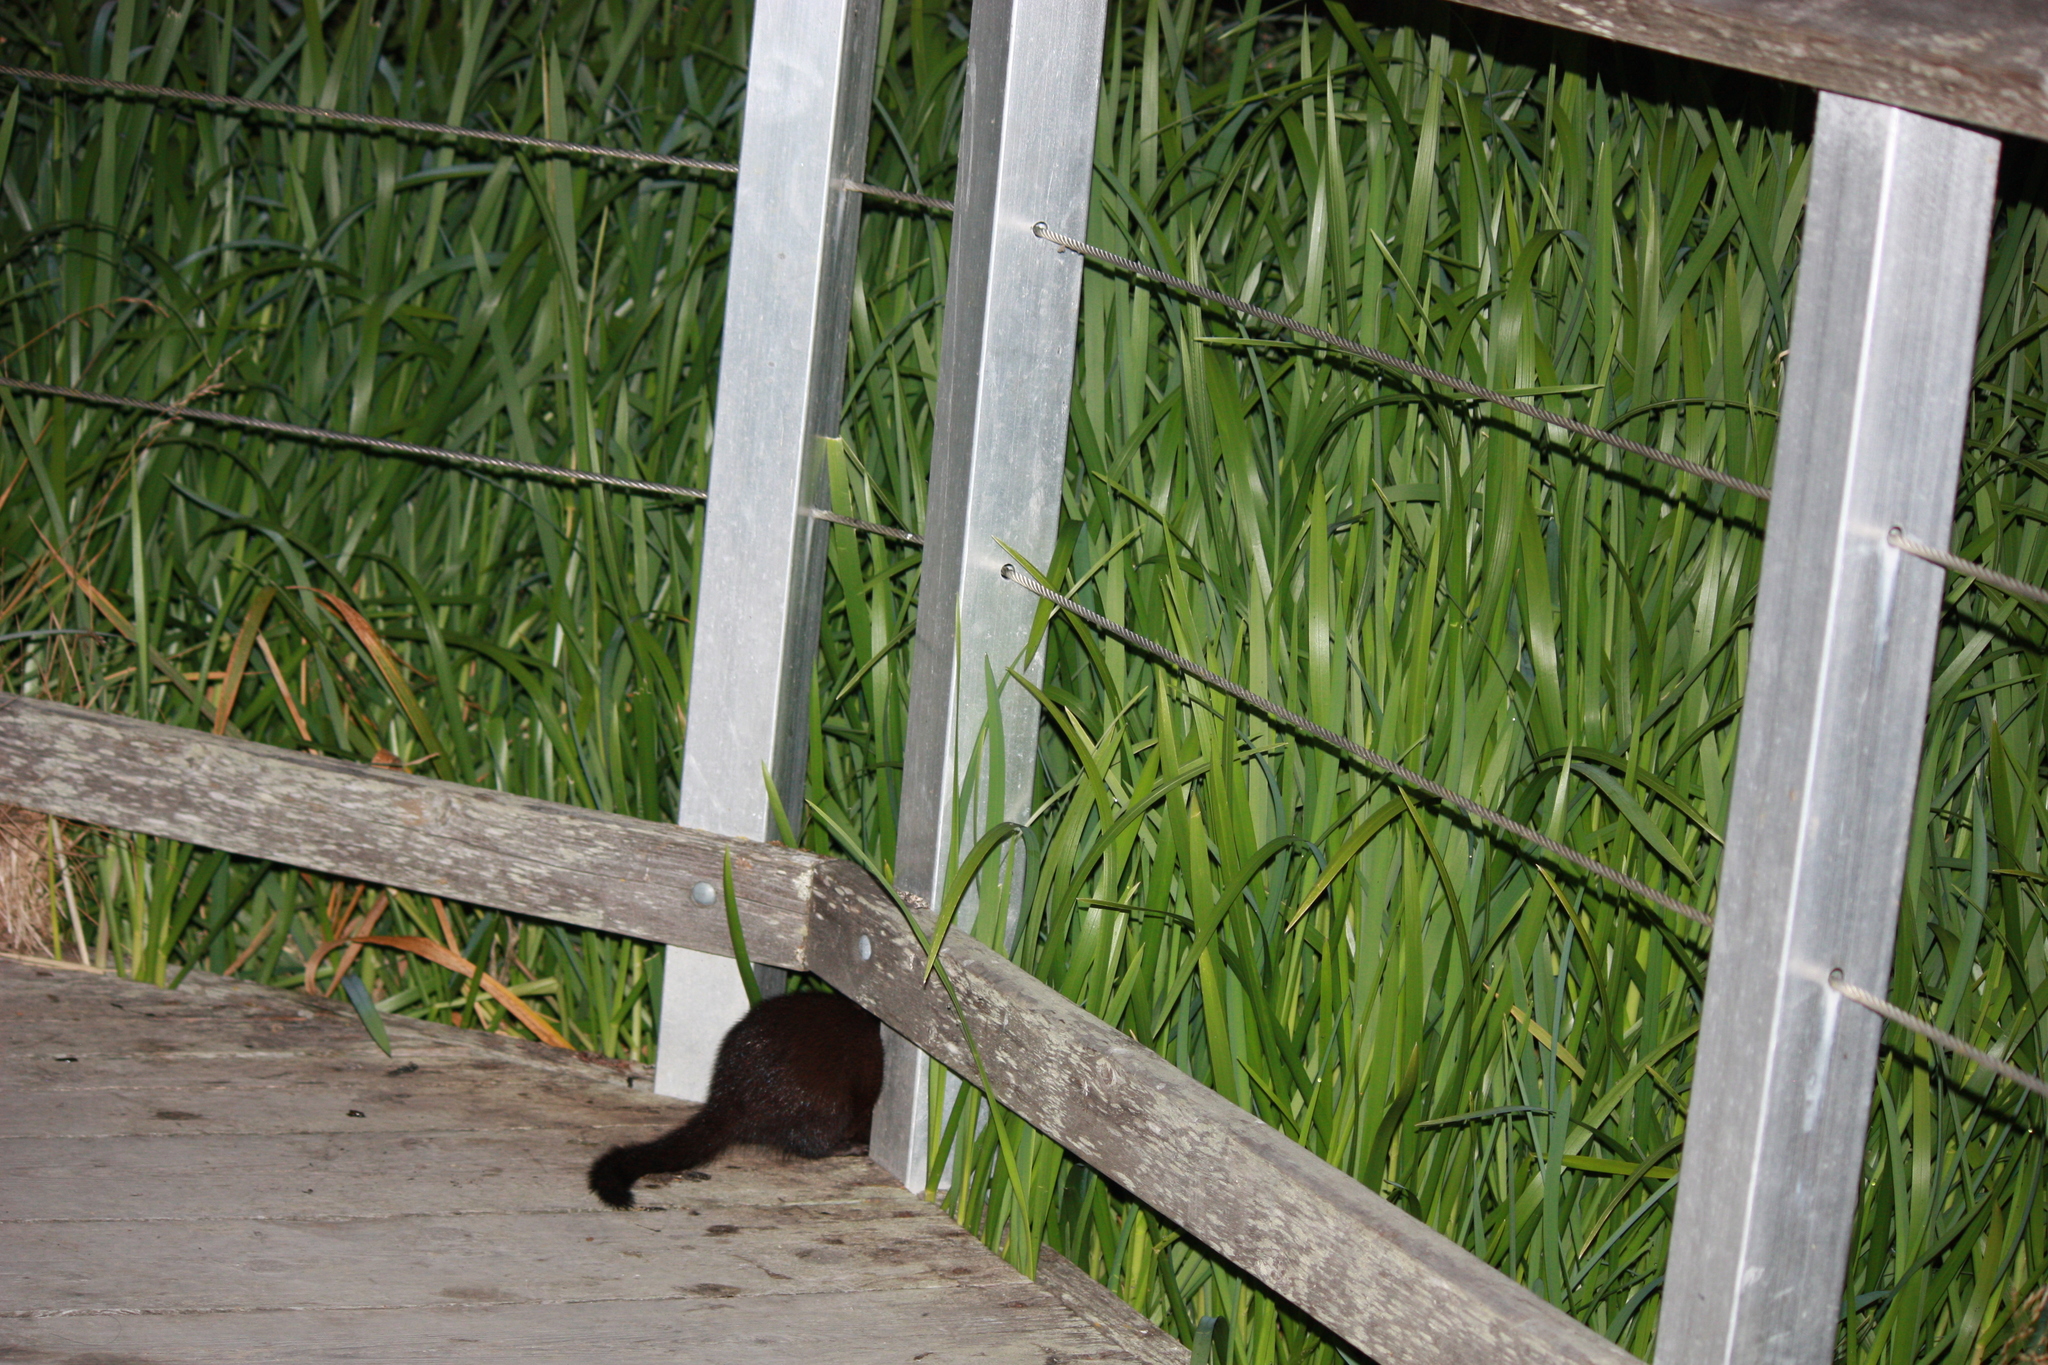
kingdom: Animalia
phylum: Chordata
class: Mammalia
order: Carnivora
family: Mustelidae
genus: Mustela
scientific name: Mustela
